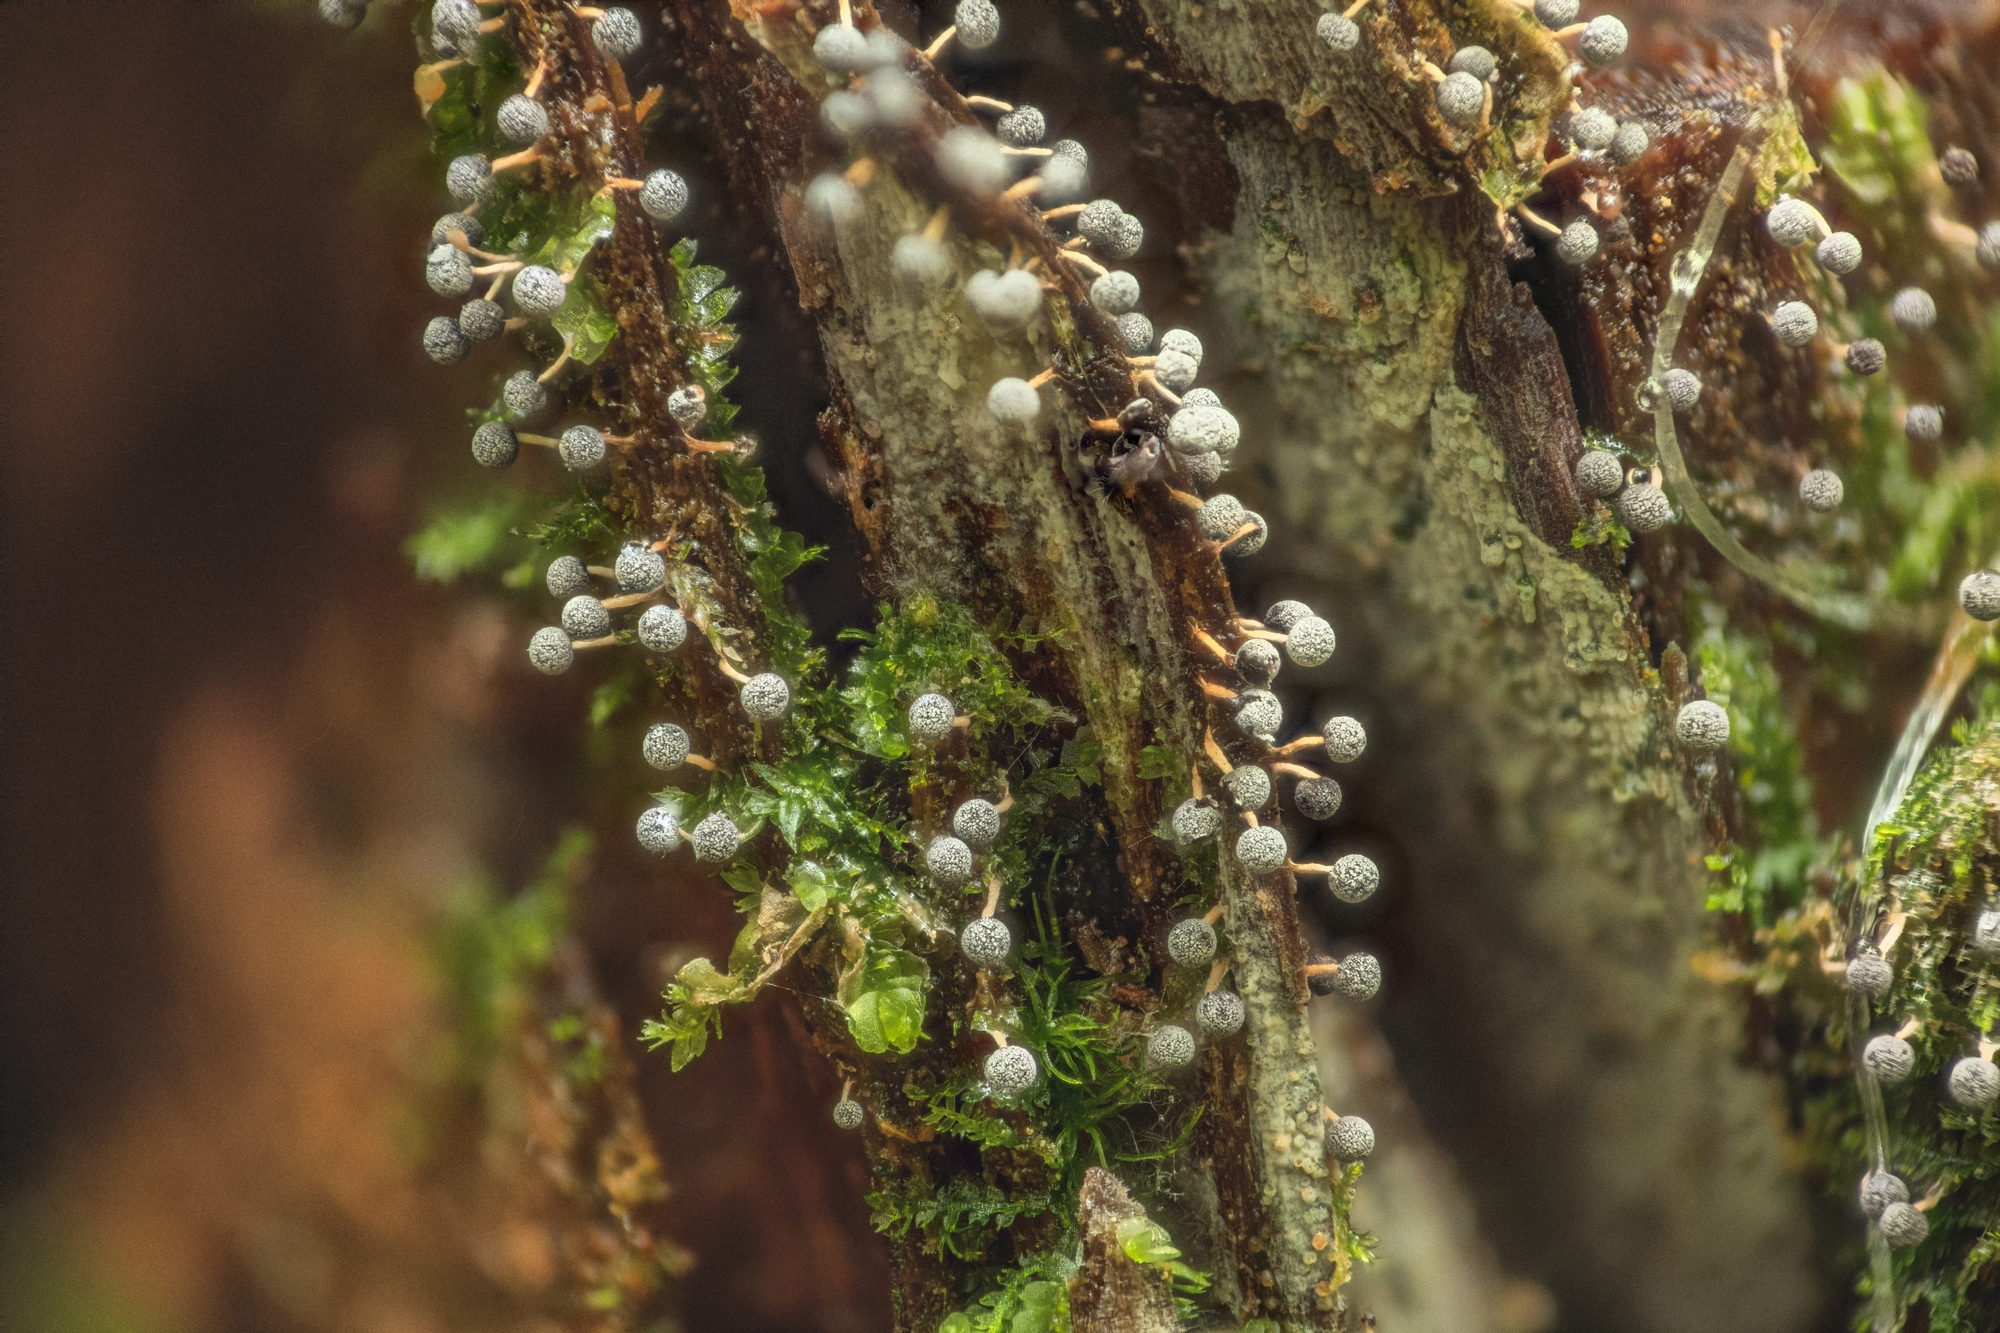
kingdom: Protozoa
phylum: Mycetozoa
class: Myxomycetes
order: Physarales
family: Physaraceae
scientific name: Physaraceae
